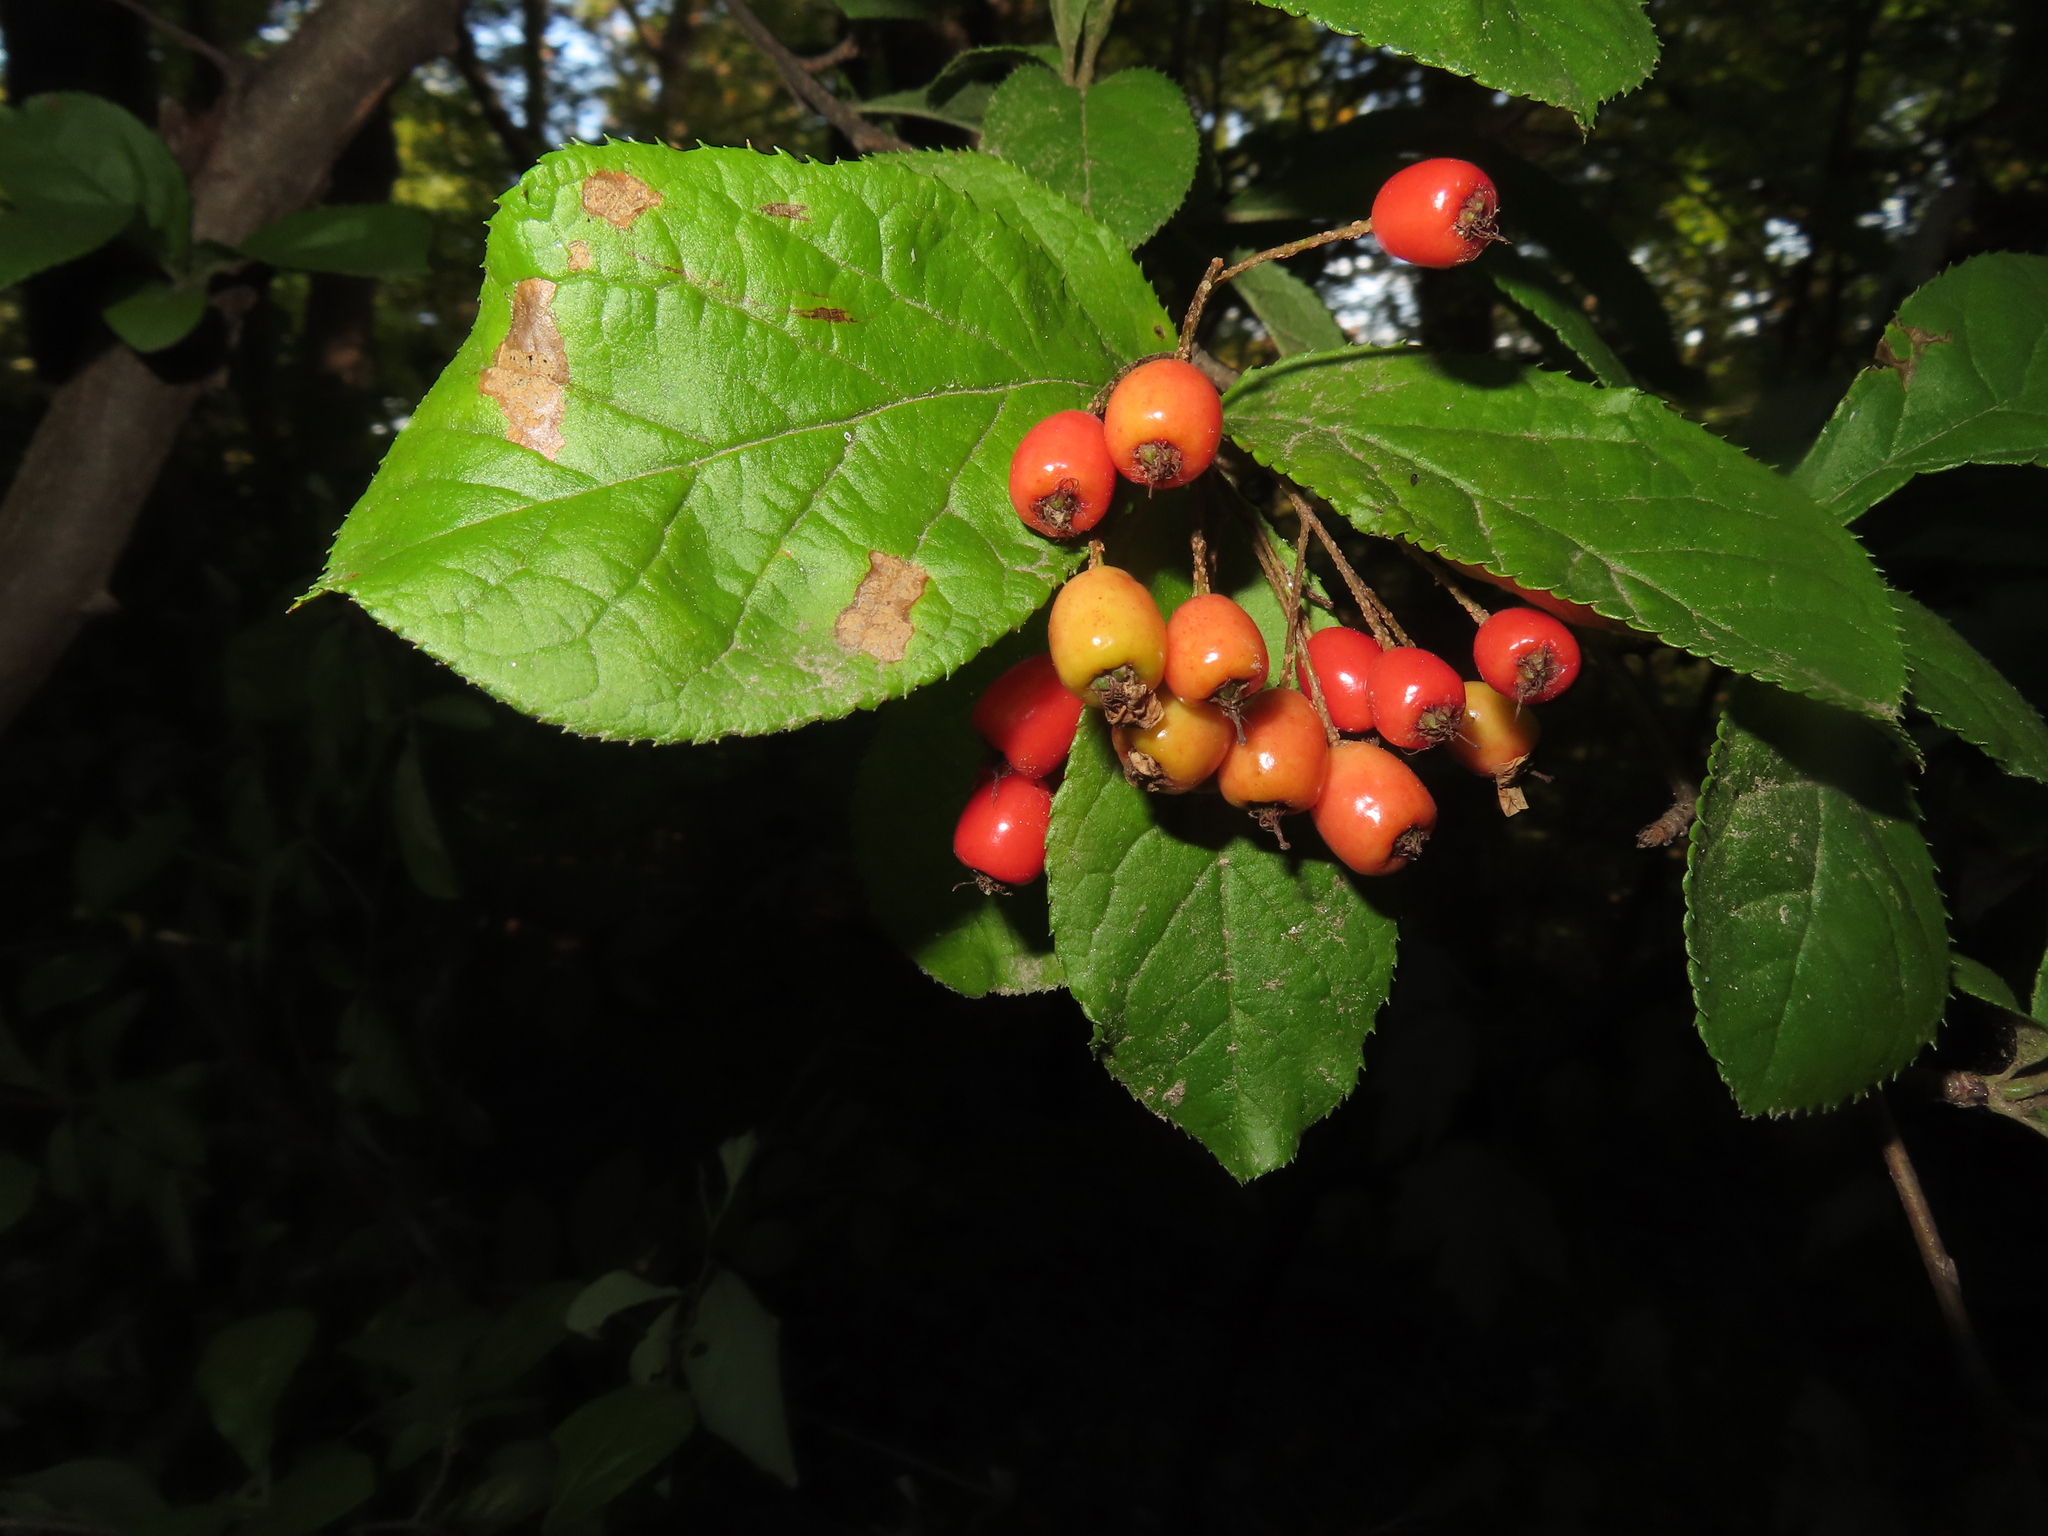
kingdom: Plantae
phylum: Tracheophyta
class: Magnoliopsida
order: Rosales
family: Rosaceae
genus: Pourthiaea
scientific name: Pourthiaea villosa
